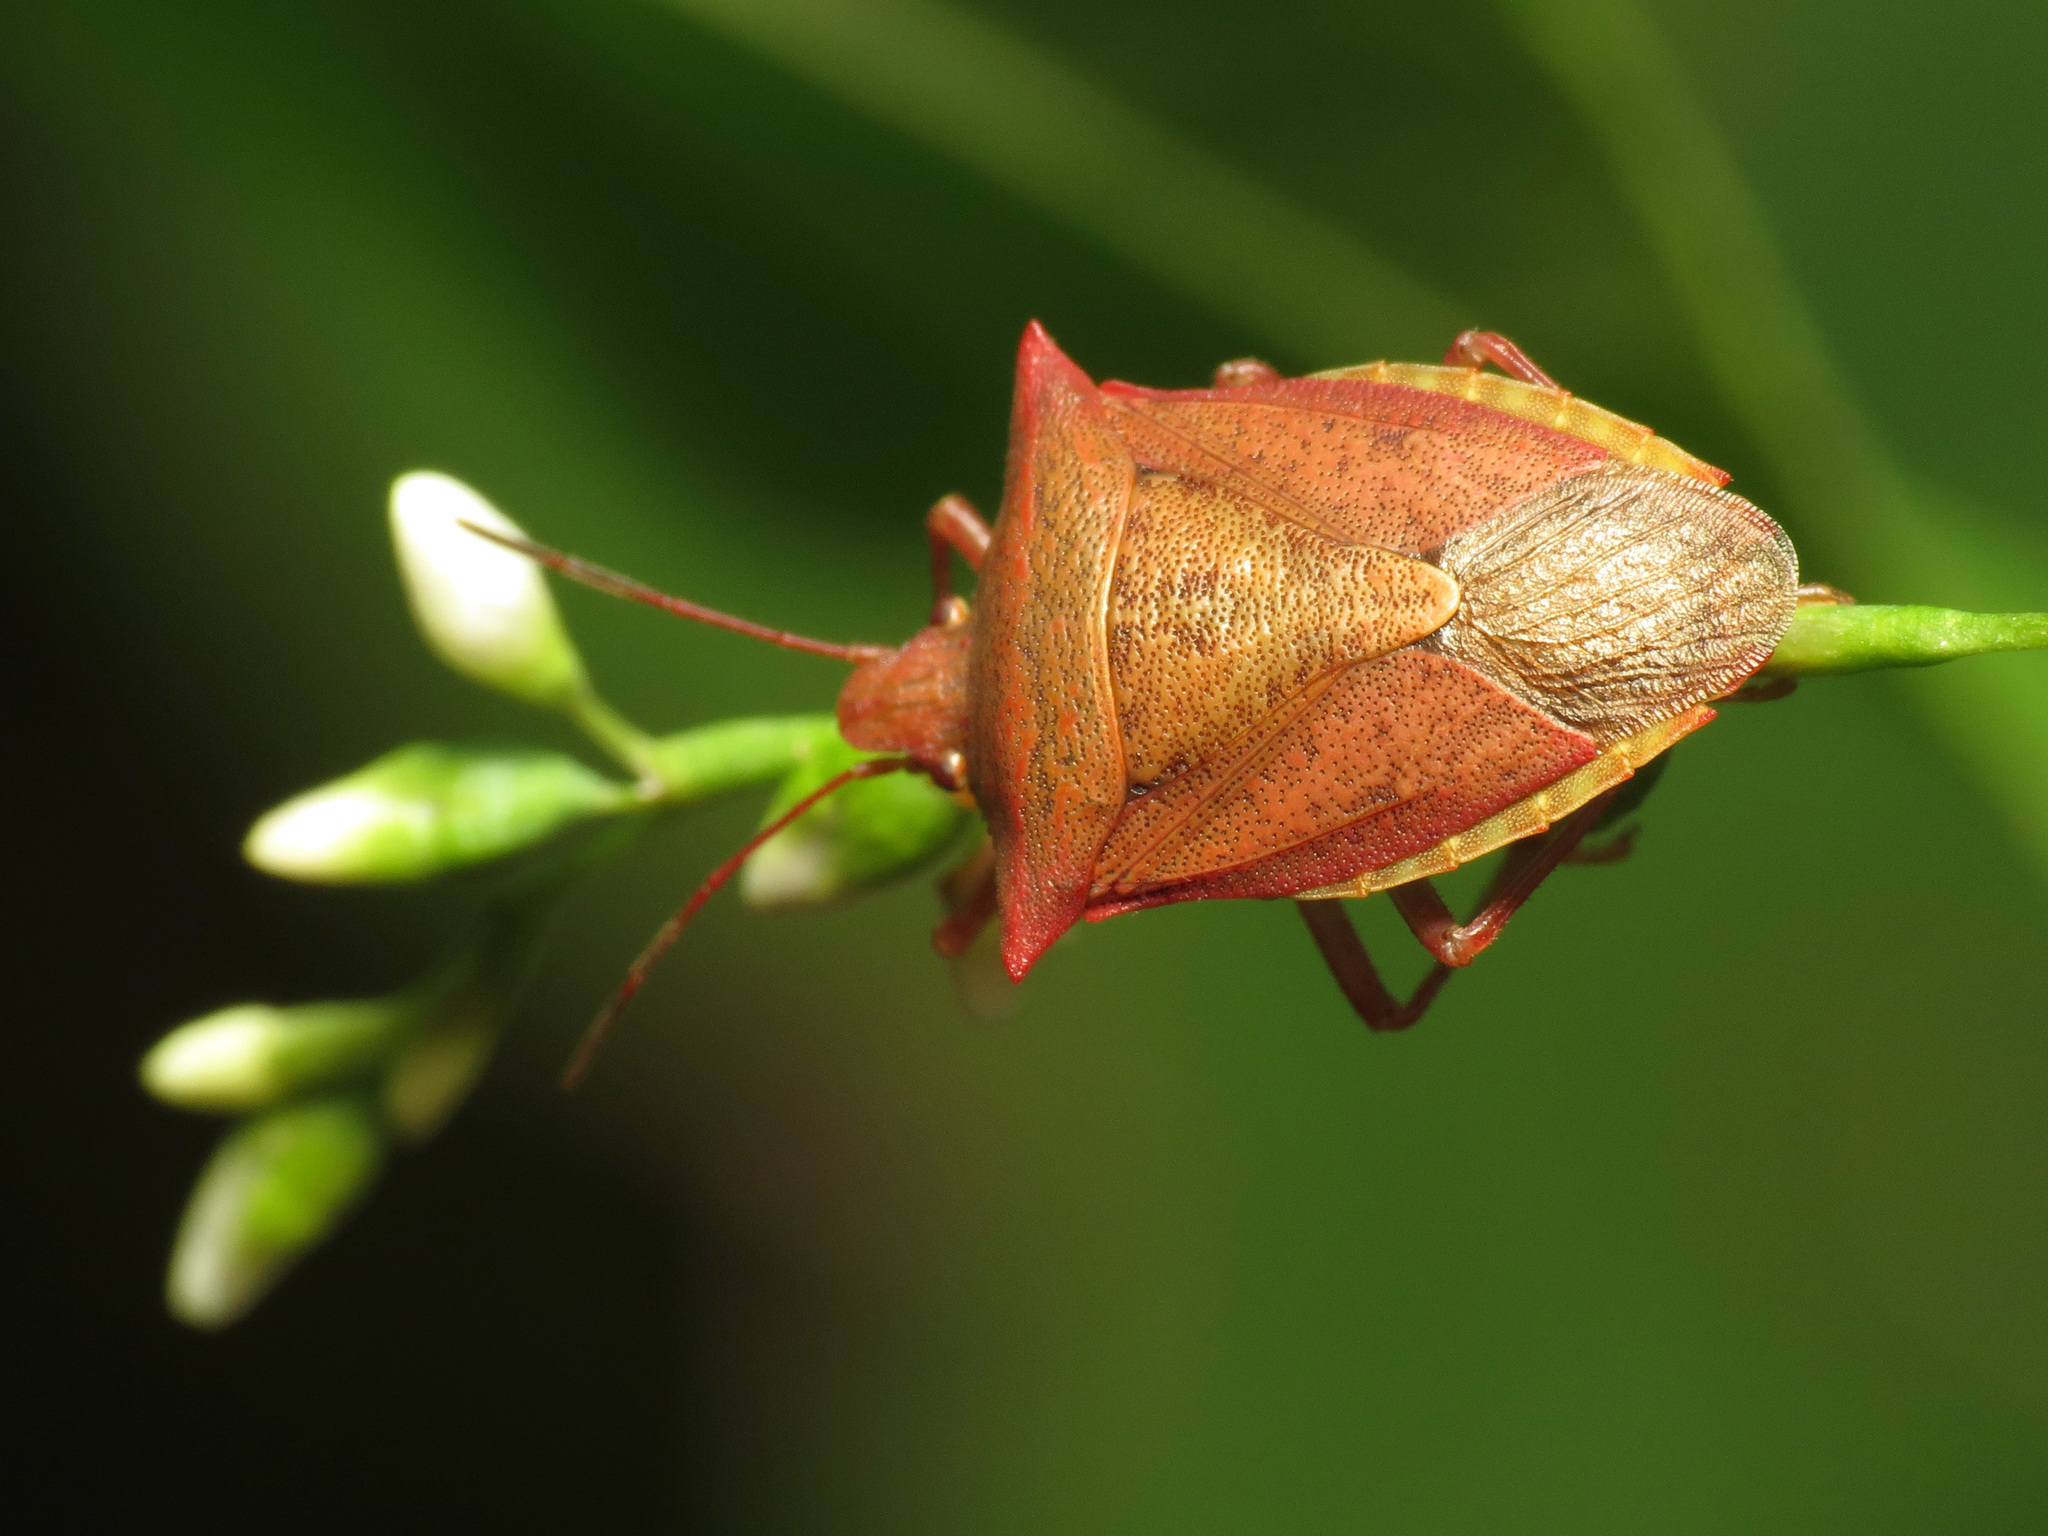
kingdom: Animalia
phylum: Arthropoda
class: Insecta
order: Hemiptera
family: Pentatomidae
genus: Euschistus
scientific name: Euschistus ictericus
